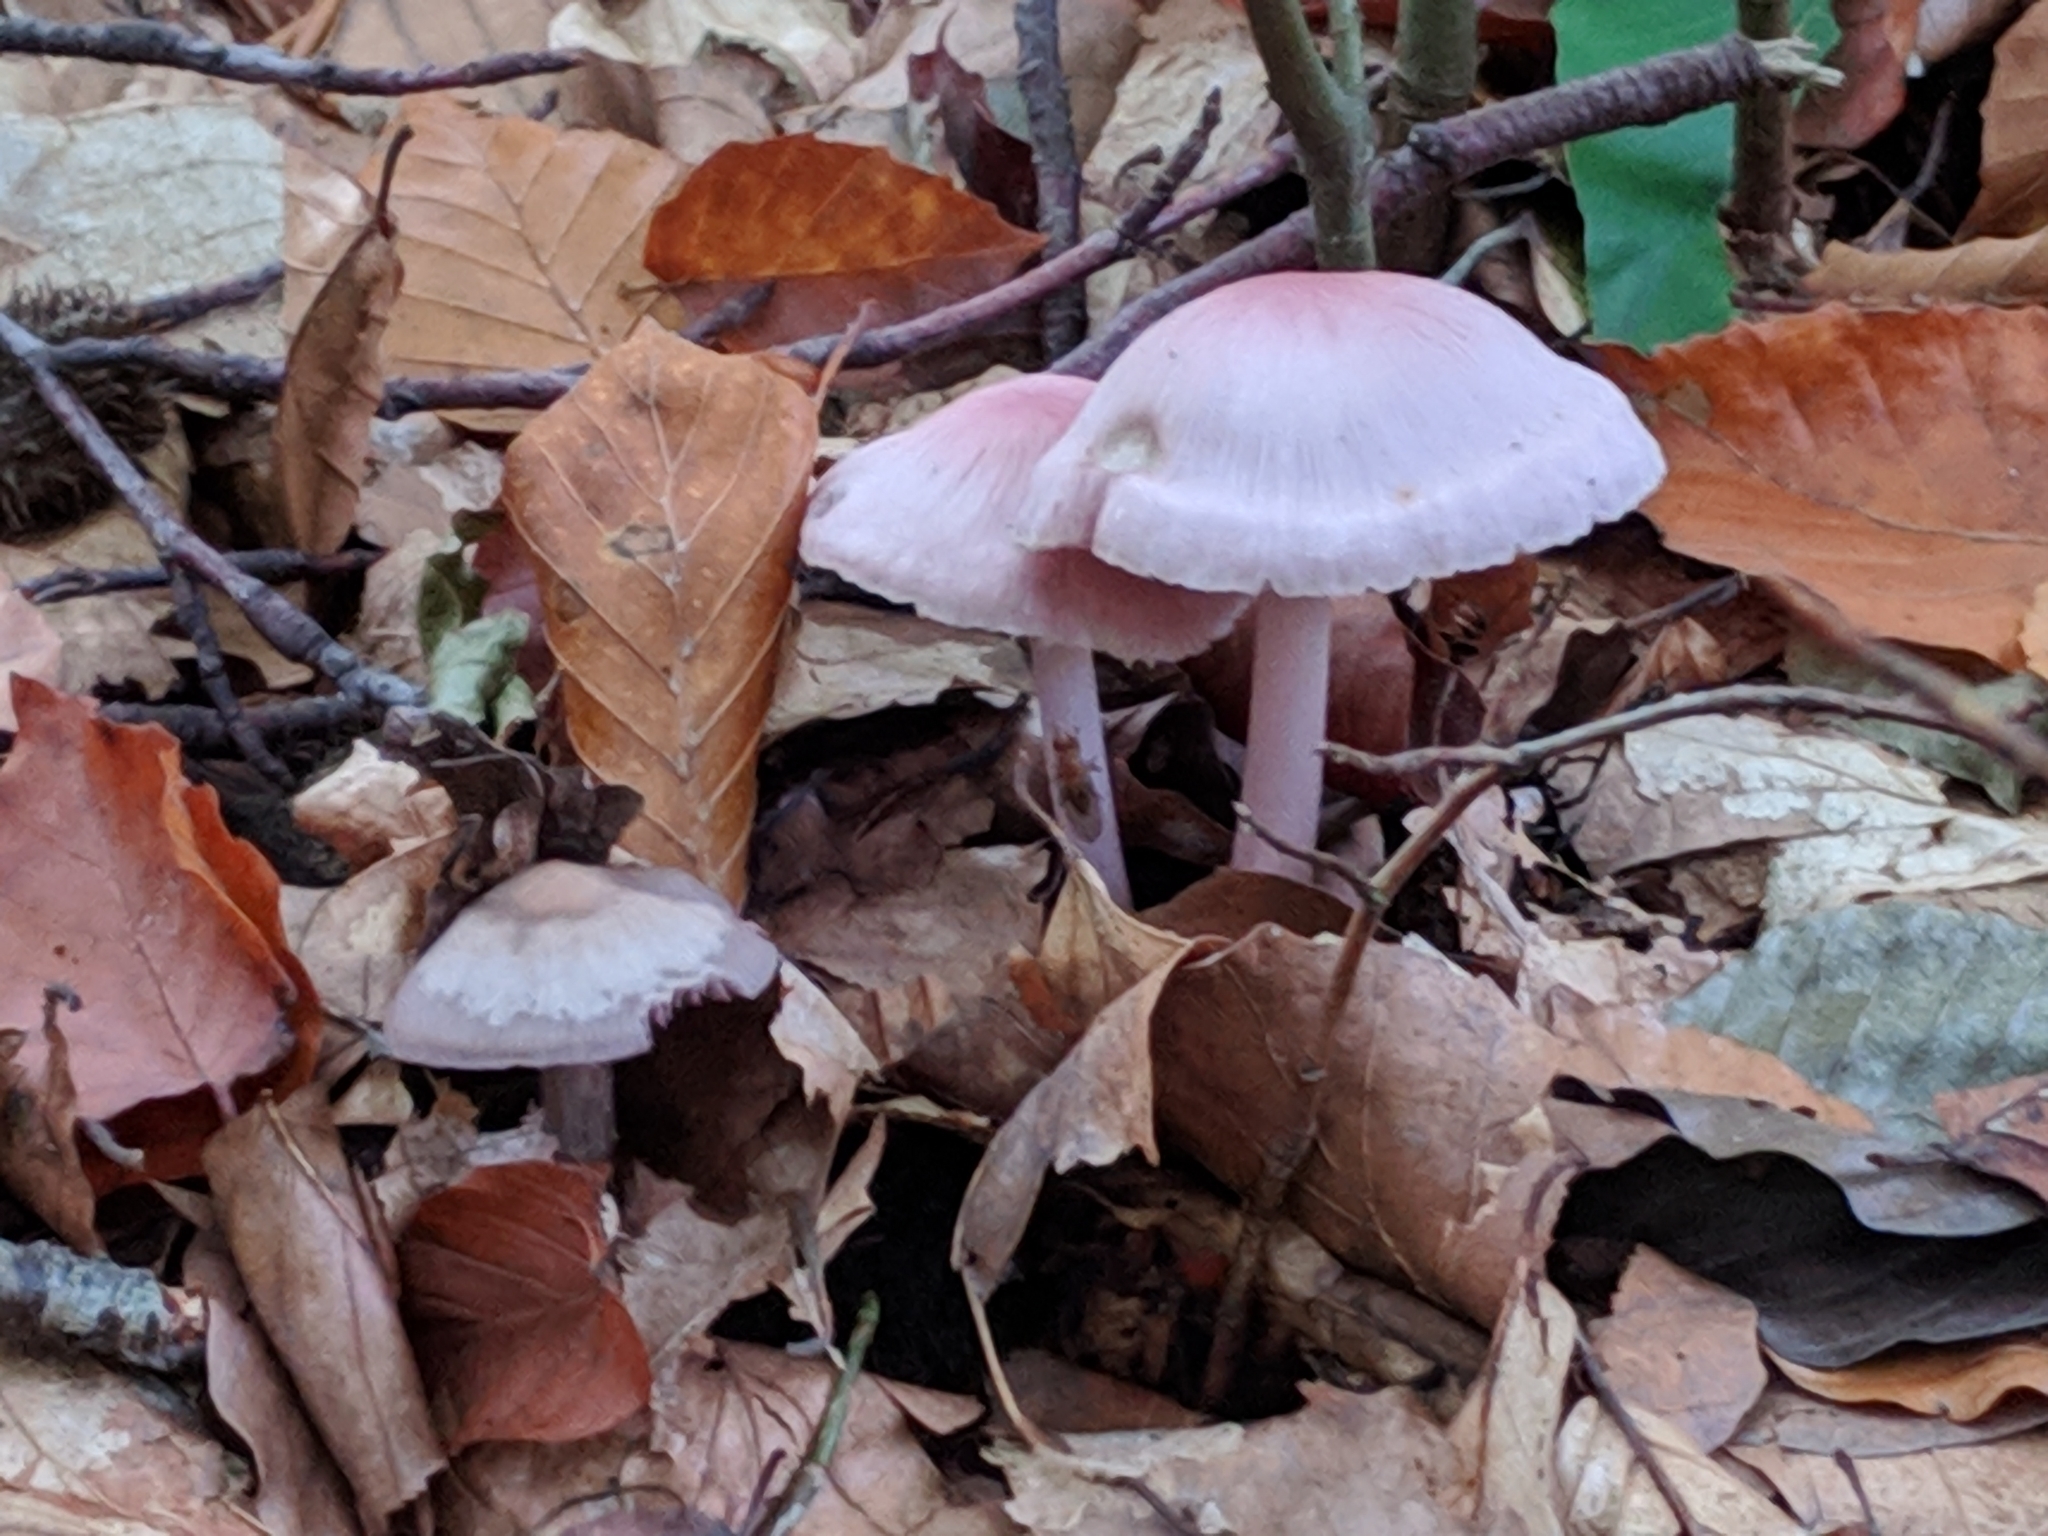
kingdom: Fungi
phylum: Basidiomycota
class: Agaricomycetes
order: Agaricales
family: Mycenaceae
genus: Mycena
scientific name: Mycena rosea
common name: Rosy bonnet
